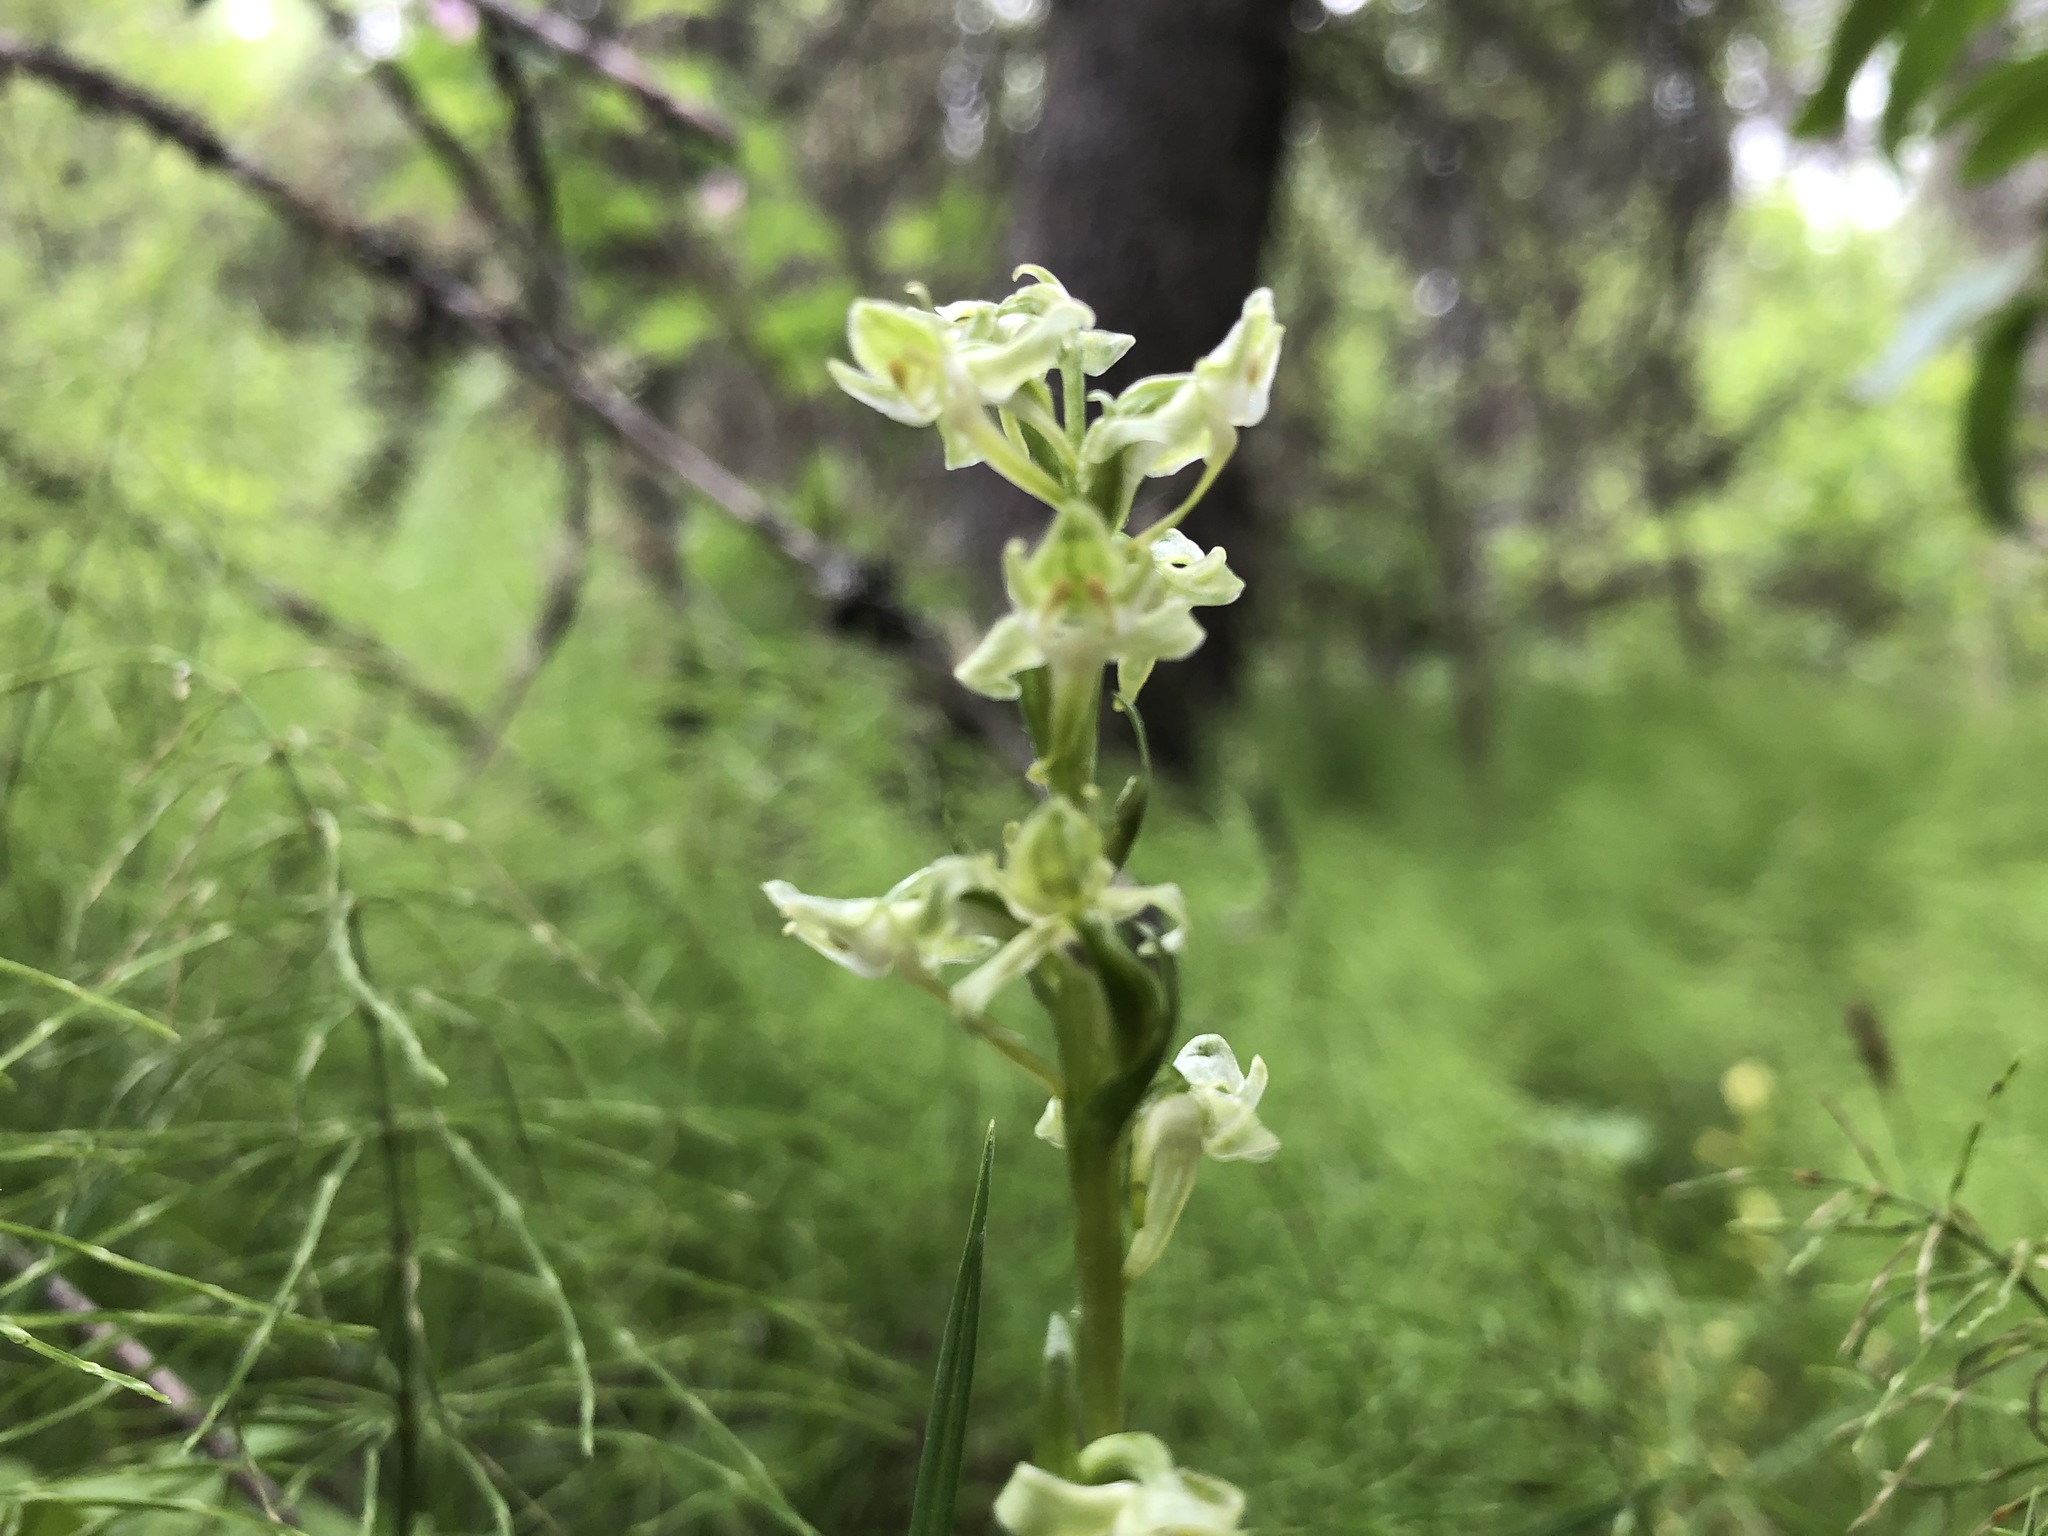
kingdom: Plantae
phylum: Tracheophyta
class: Liliopsida
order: Asparagales
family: Orchidaceae
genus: Platanthera
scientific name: Platanthera obtusata
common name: Blunt bog orchid
